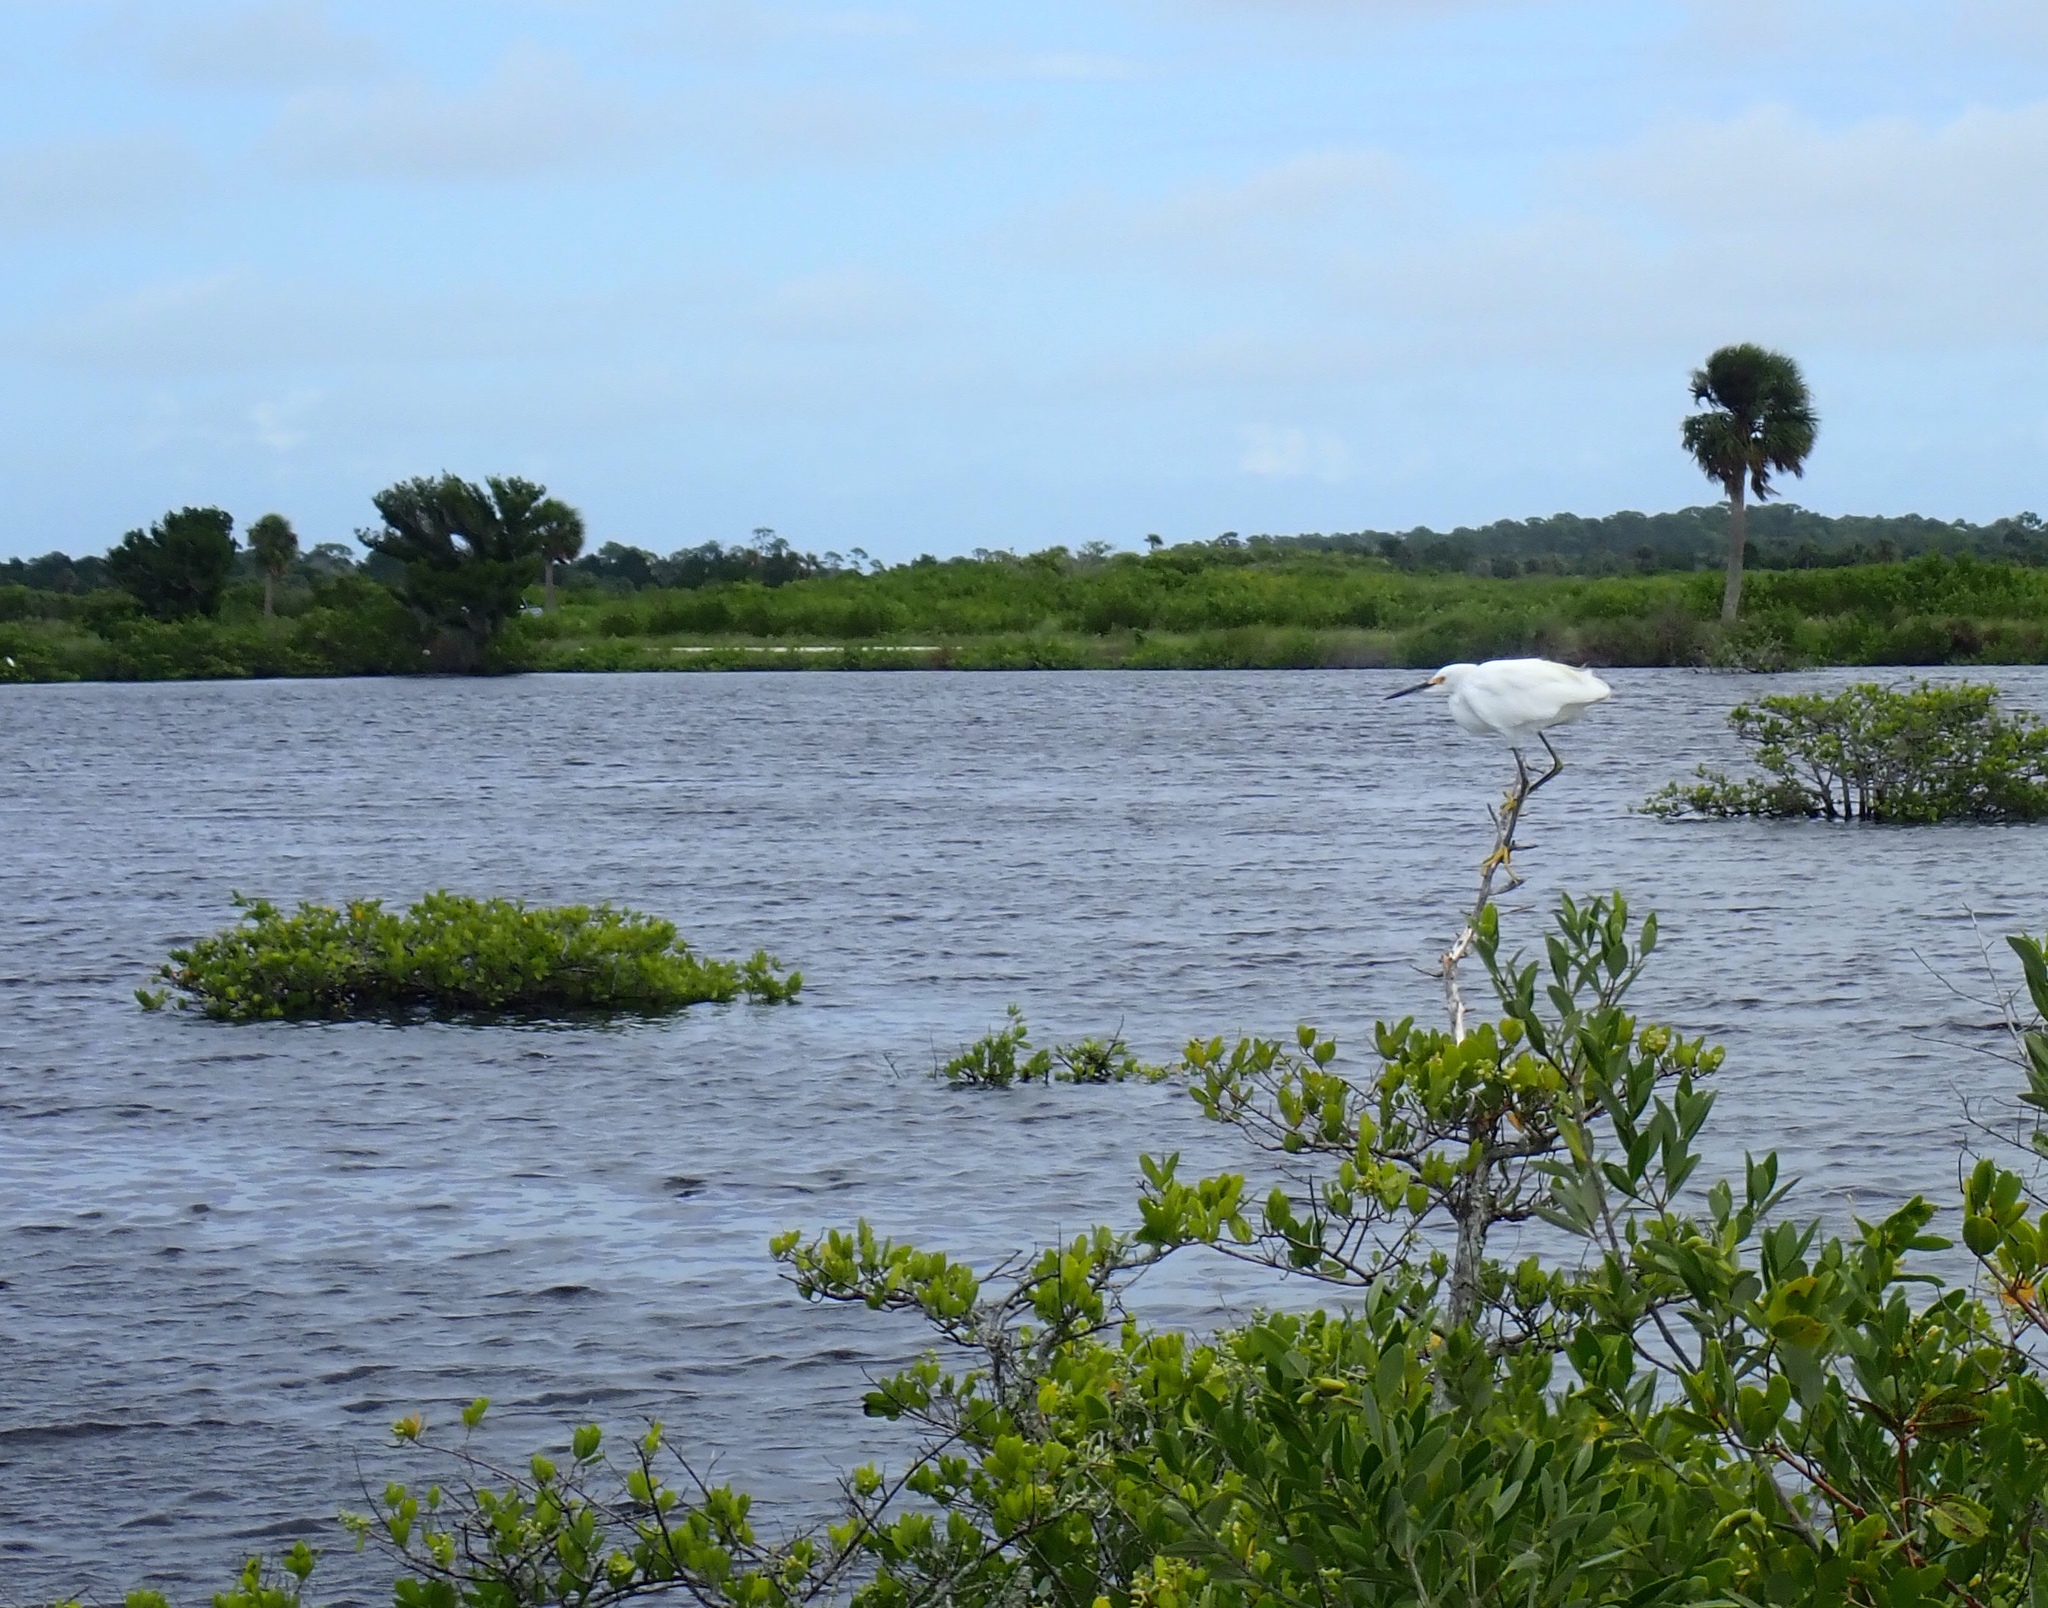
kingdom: Animalia
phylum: Chordata
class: Aves
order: Pelecaniformes
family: Ardeidae
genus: Egretta
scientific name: Egretta thula
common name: Snowy egret
